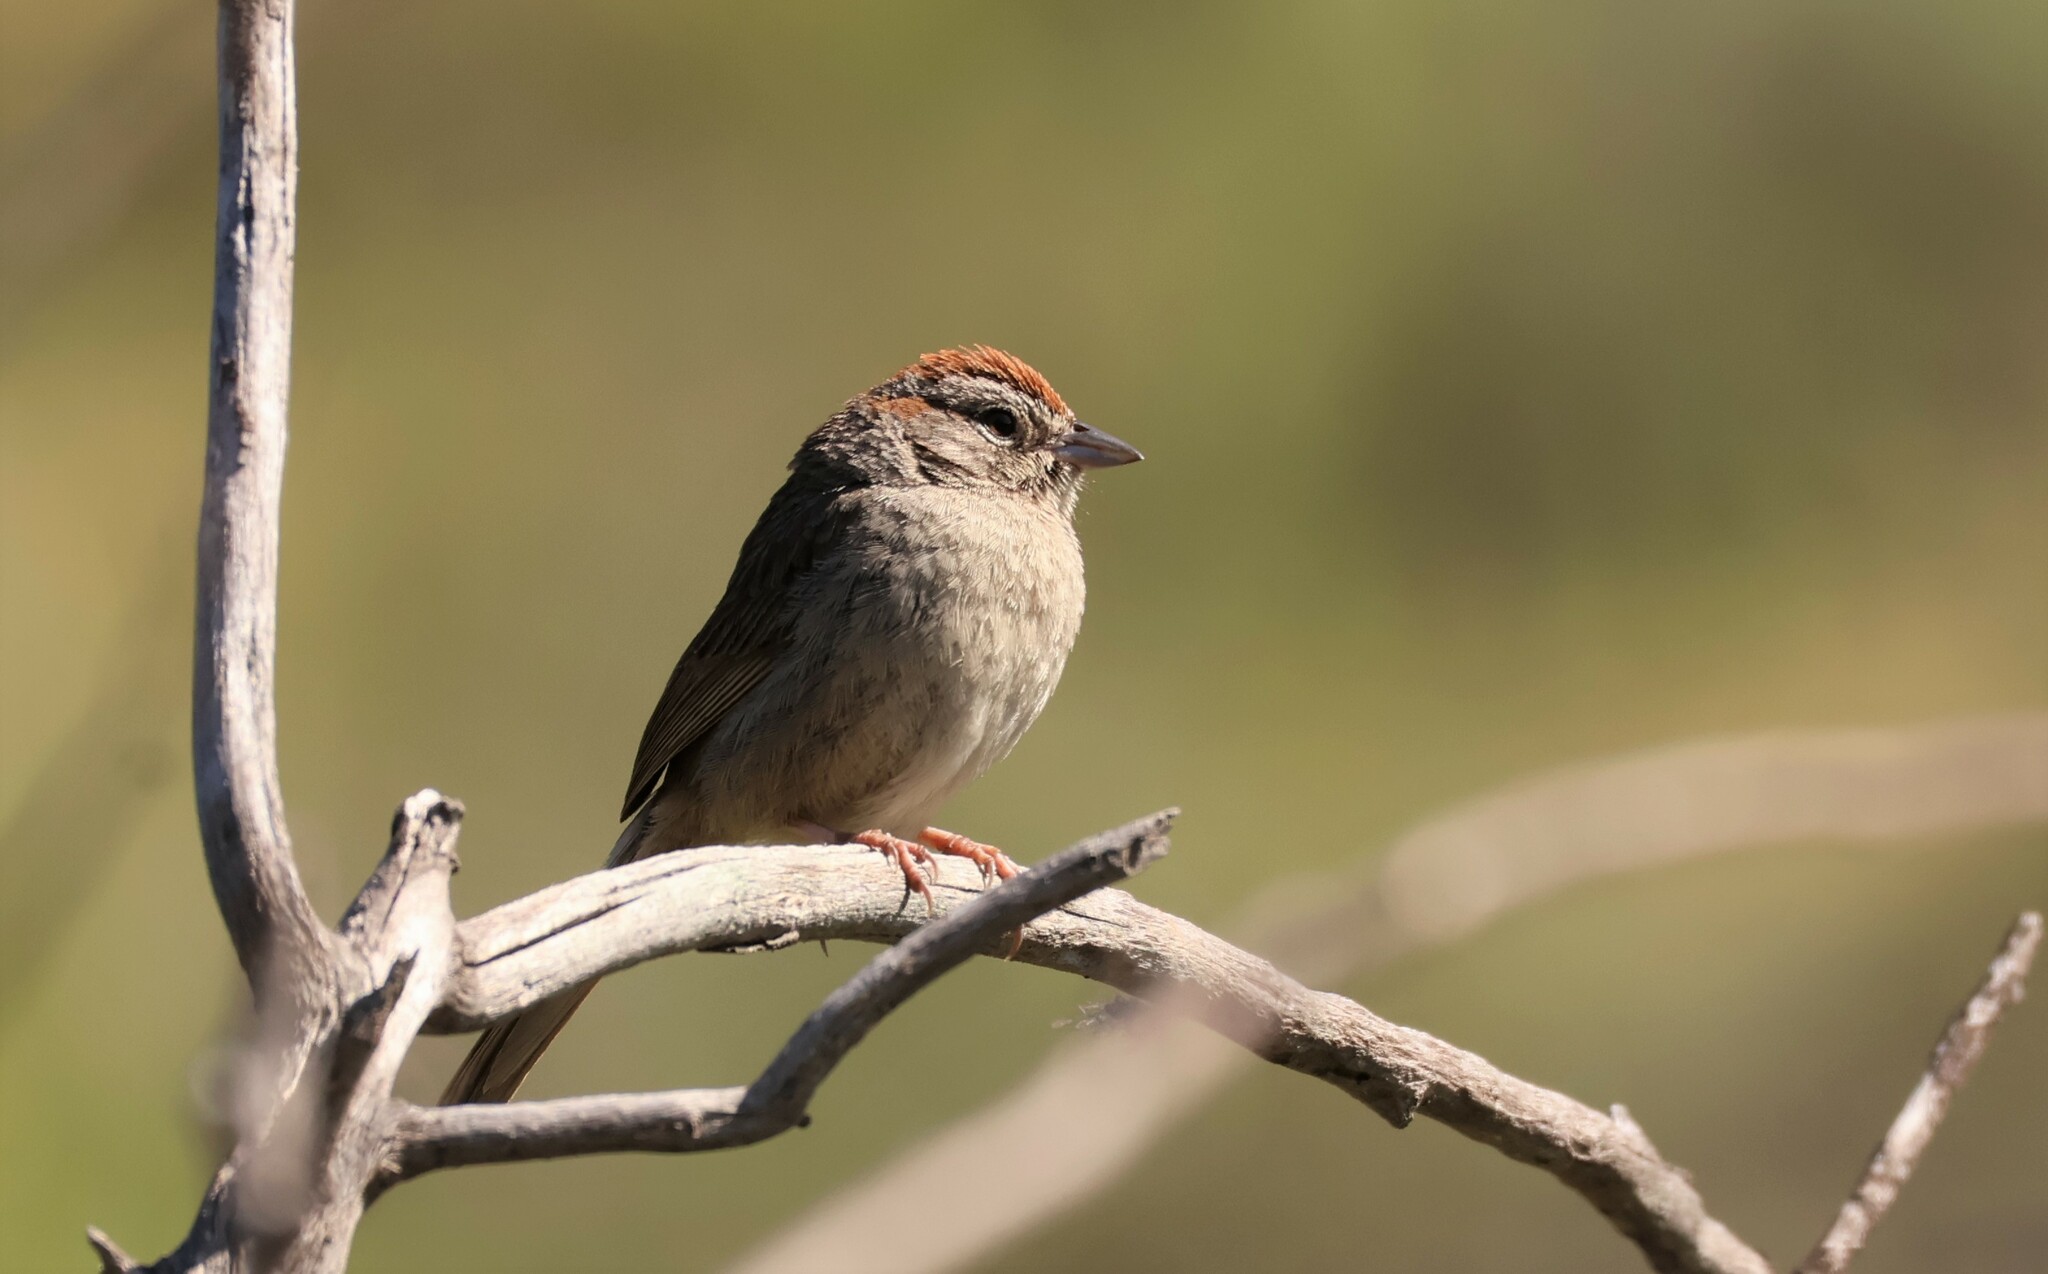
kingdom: Animalia
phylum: Chordata
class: Aves
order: Passeriformes
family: Passerellidae
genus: Aimophila
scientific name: Aimophila ruficeps
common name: Rufous-crowned sparrow
